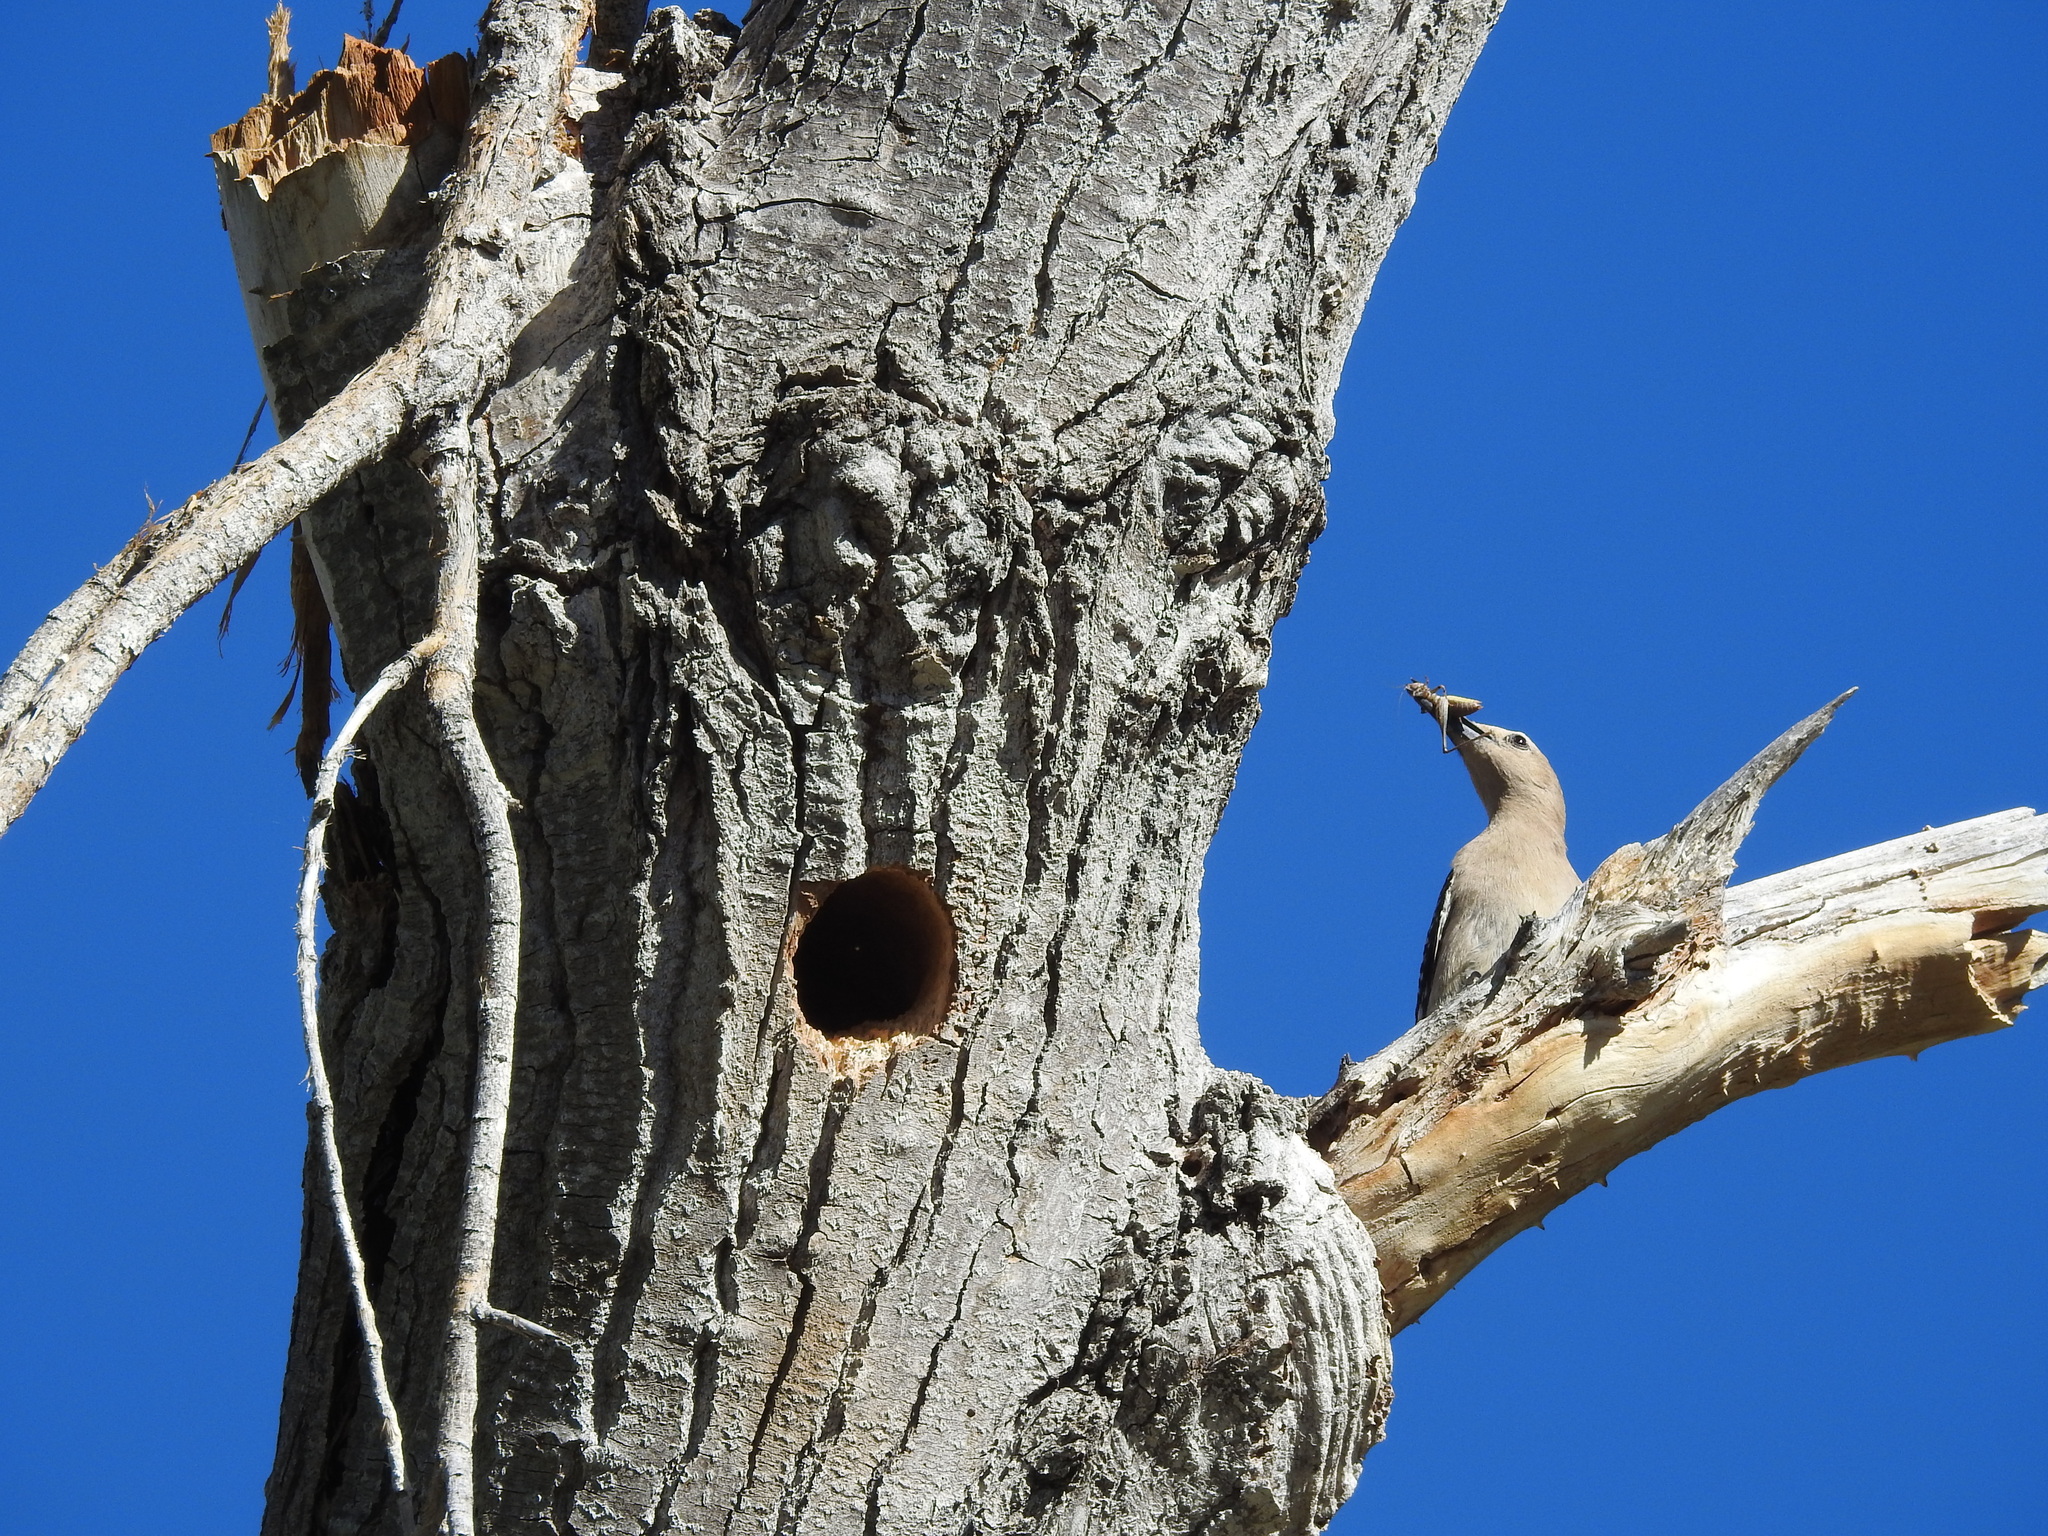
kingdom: Animalia
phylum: Chordata
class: Aves
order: Piciformes
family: Picidae
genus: Melanerpes
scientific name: Melanerpes uropygialis
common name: Gila woodpecker
